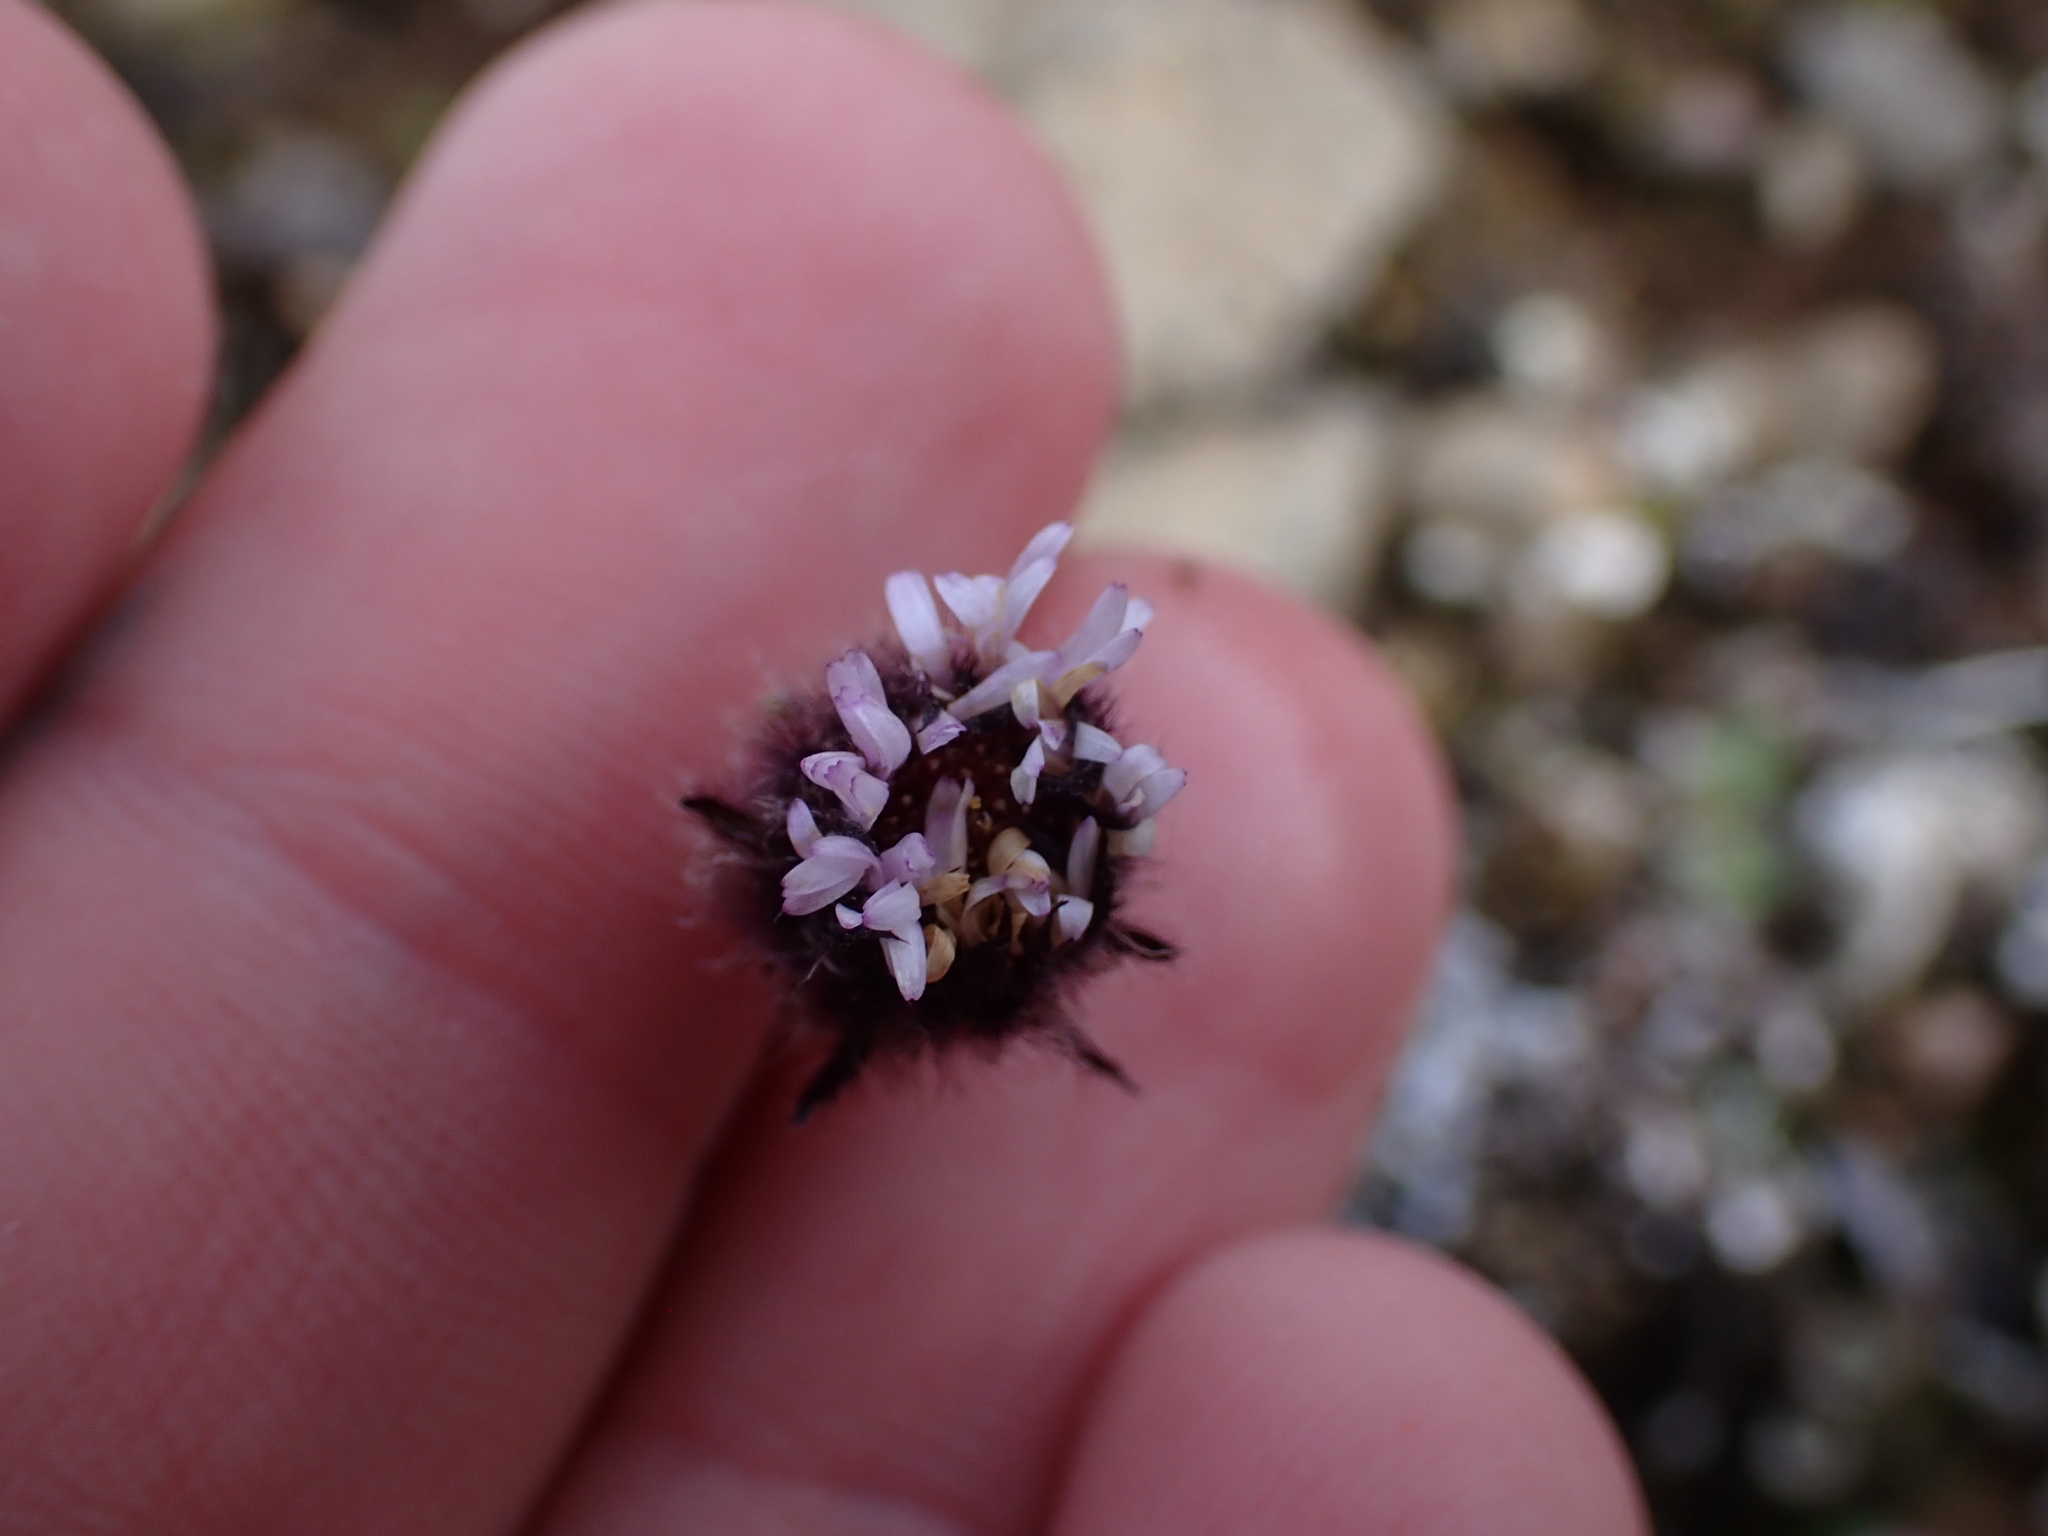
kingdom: Plantae
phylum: Tracheophyta
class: Magnoliopsida
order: Asterales
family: Asteraceae
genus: Erigeron
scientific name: Erigeron humilis
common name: Arctic-alpine fleabane
